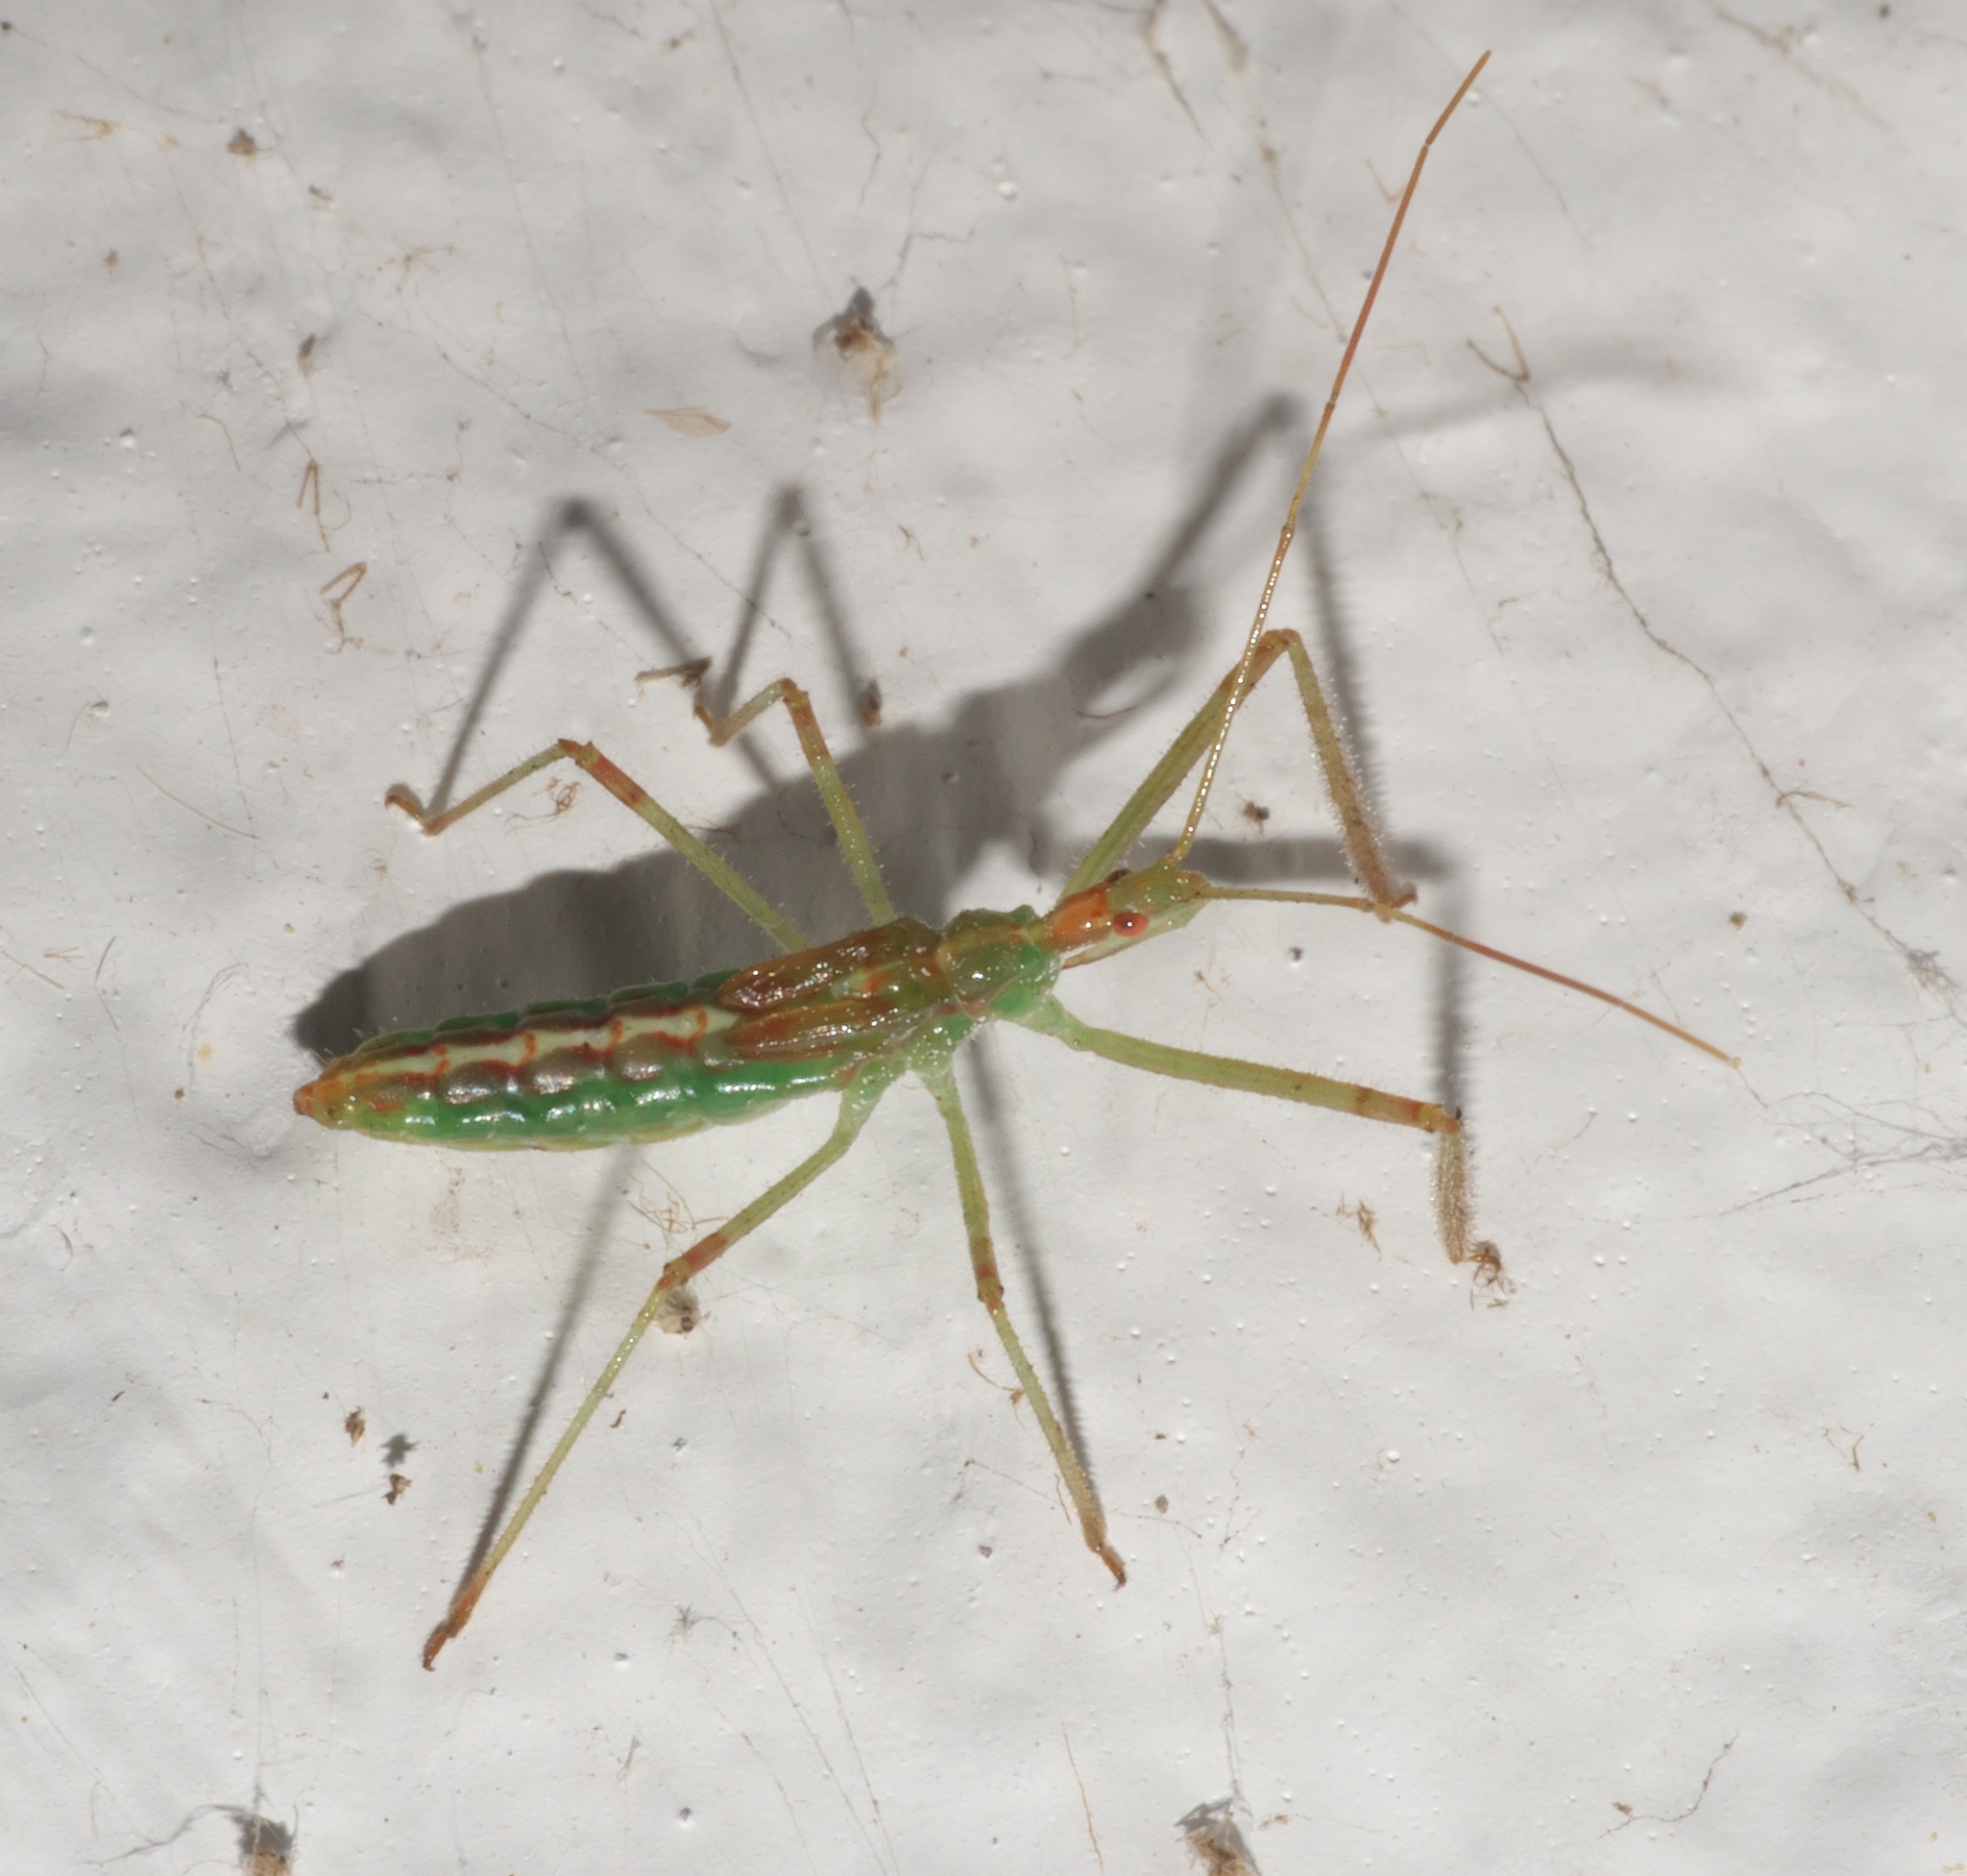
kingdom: Animalia
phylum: Arthropoda
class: Insecta
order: Hemiptera
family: Reduviidae
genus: Zelus
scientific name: Zelus luridus
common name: Pale green assassin bug
